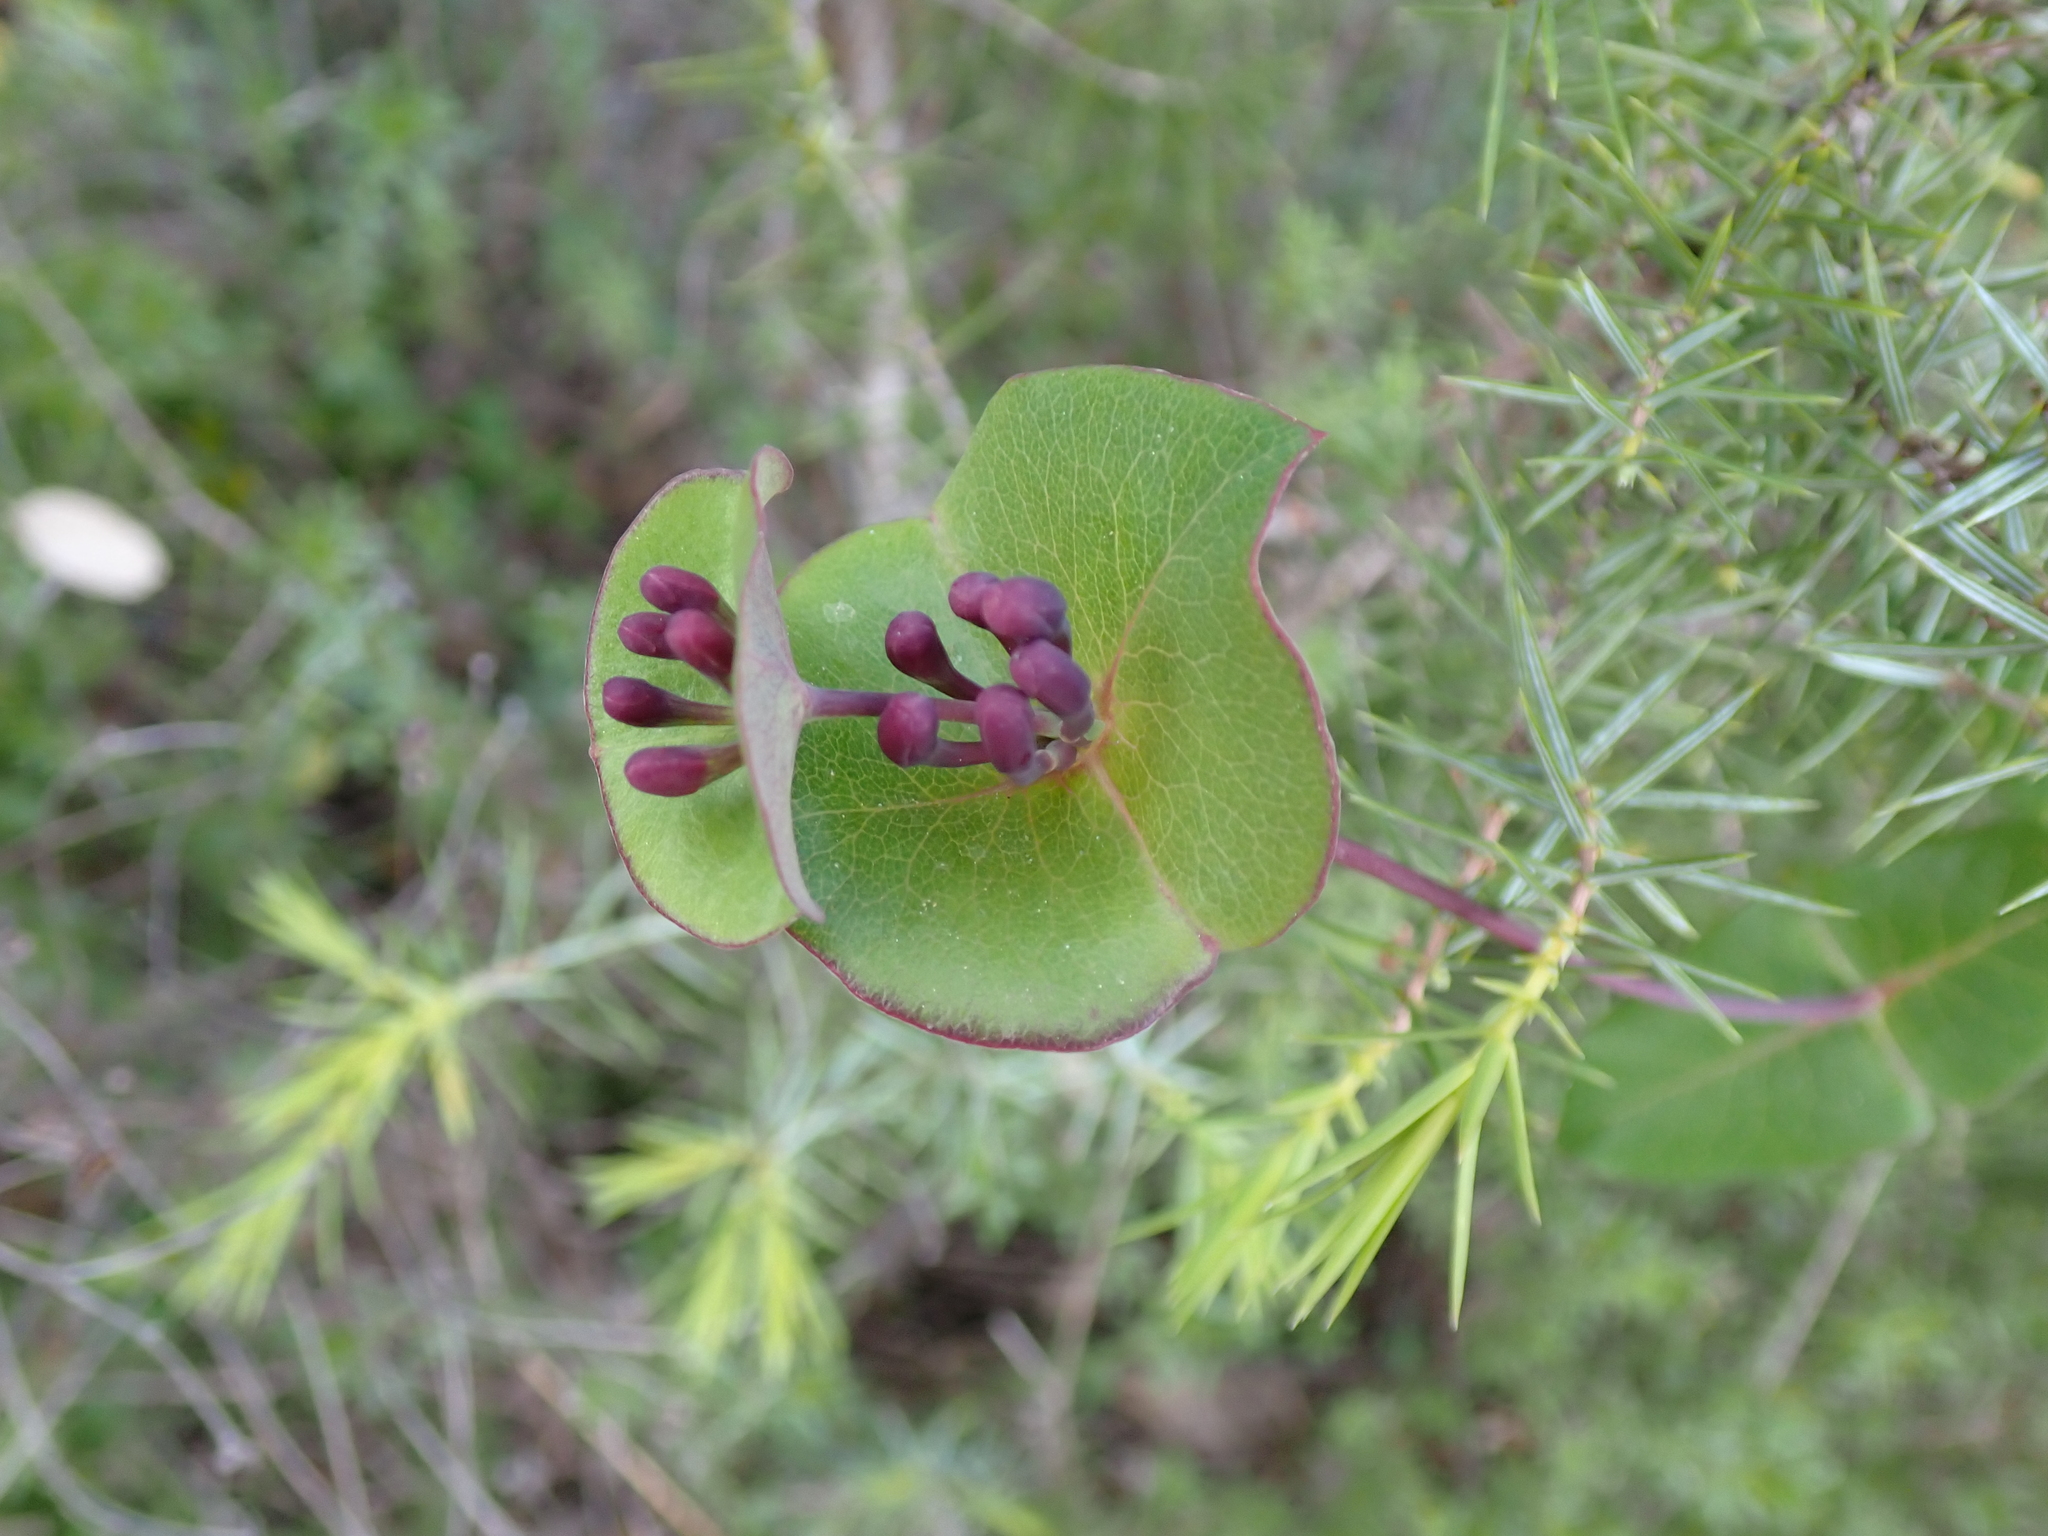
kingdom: Plantae
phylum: Tracheophyta
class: Magnoliopsida
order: Dipsacales
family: Caprifoliaceae
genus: Lonicera
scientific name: Lonicera implexa
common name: Minorca honeysuckle
